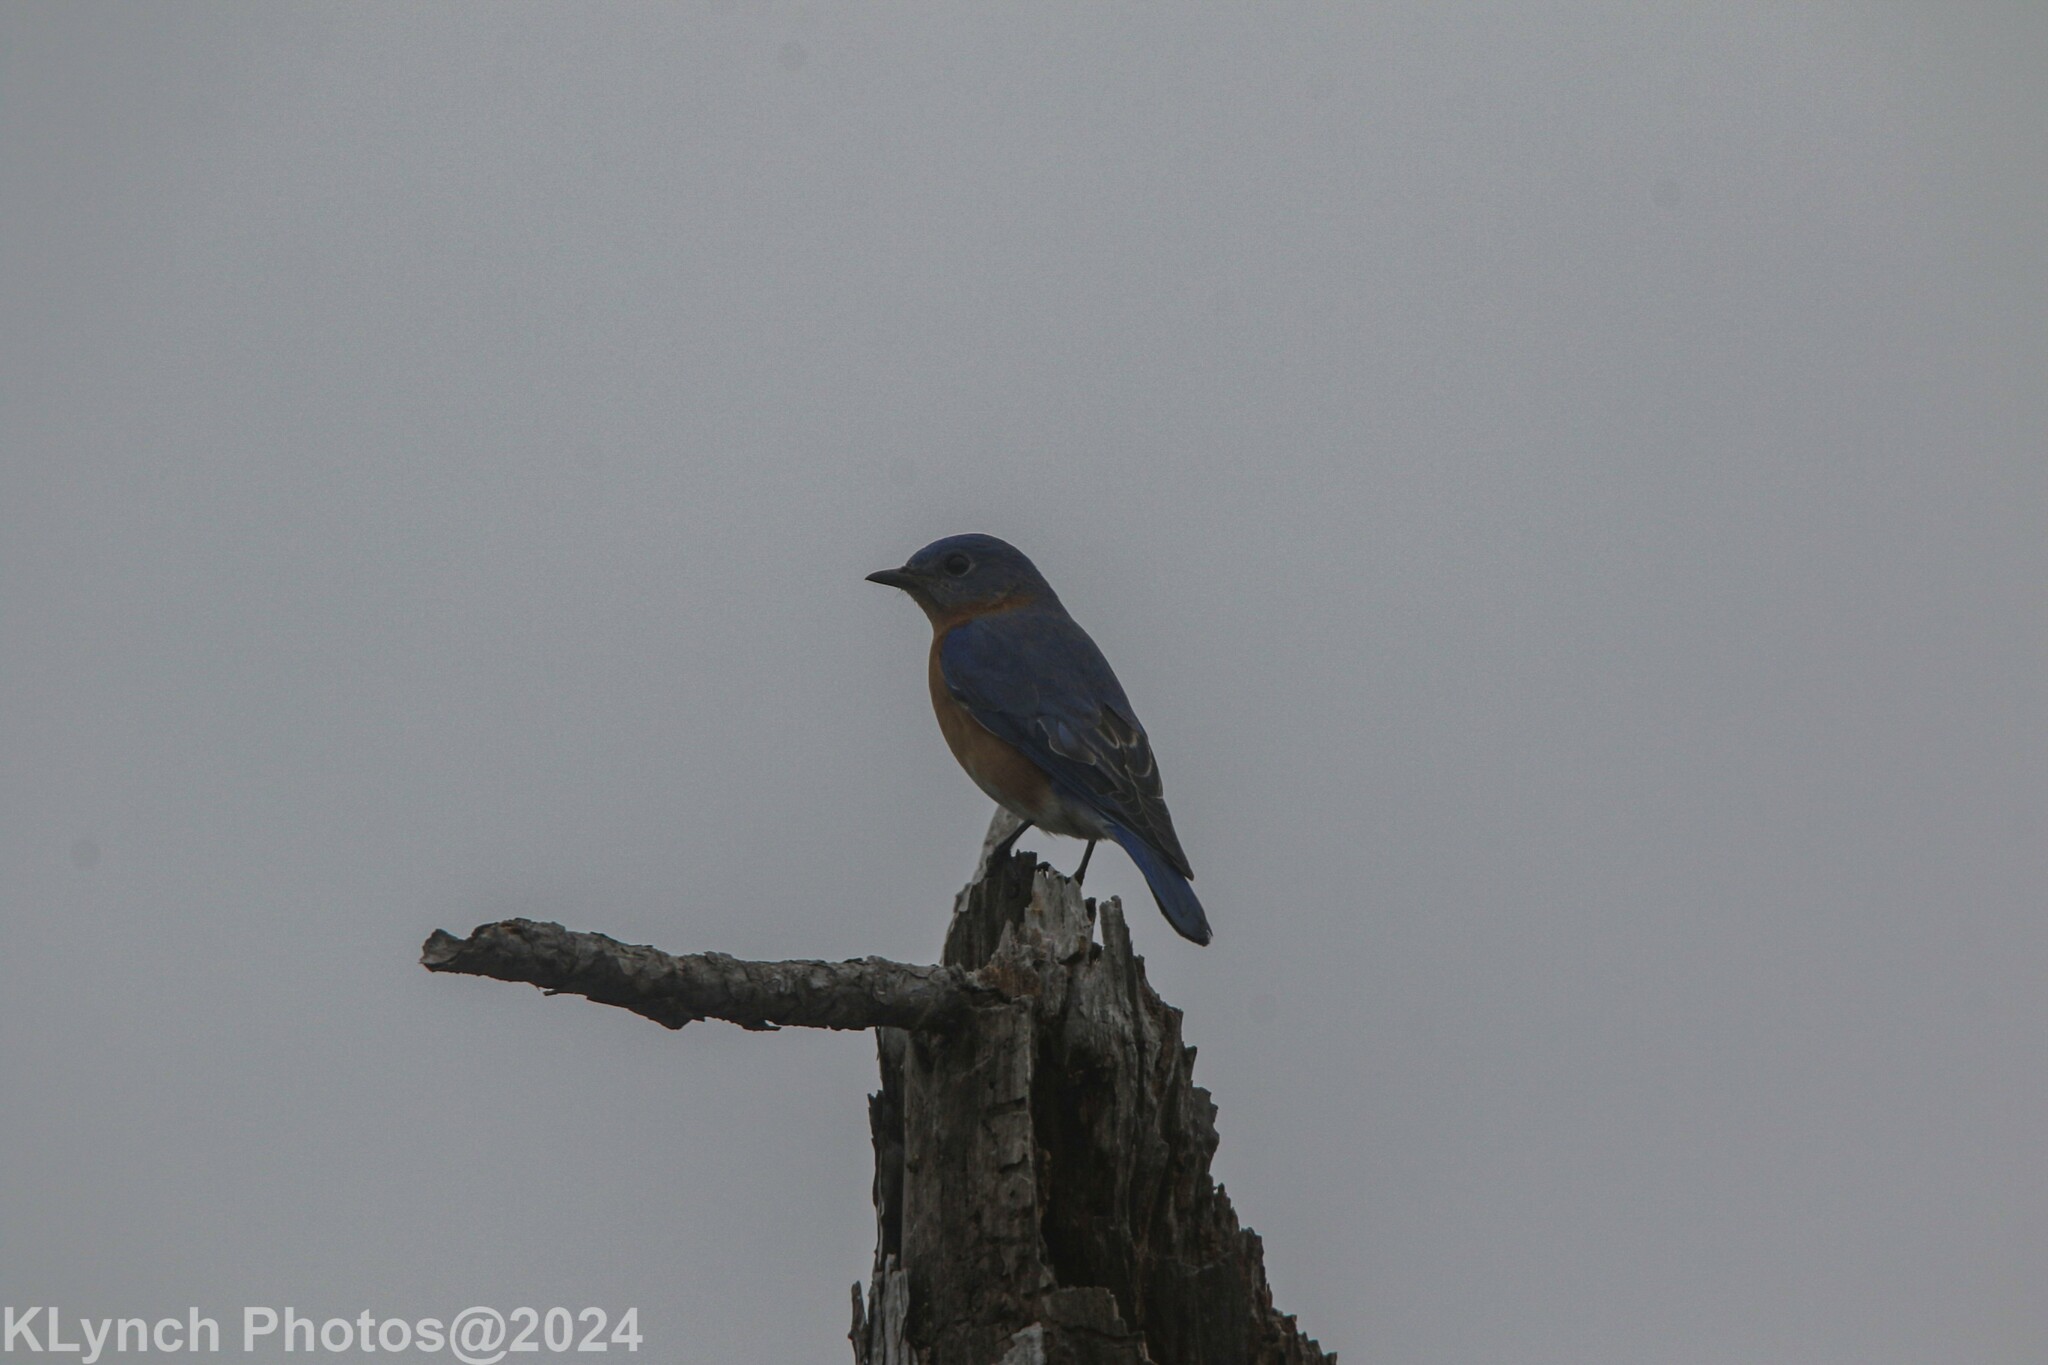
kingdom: Animalia
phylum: Chordata
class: Aves
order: Passeriformes
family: Turdidae
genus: Sialia
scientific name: Sialia sialis
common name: Eastern bluebird
